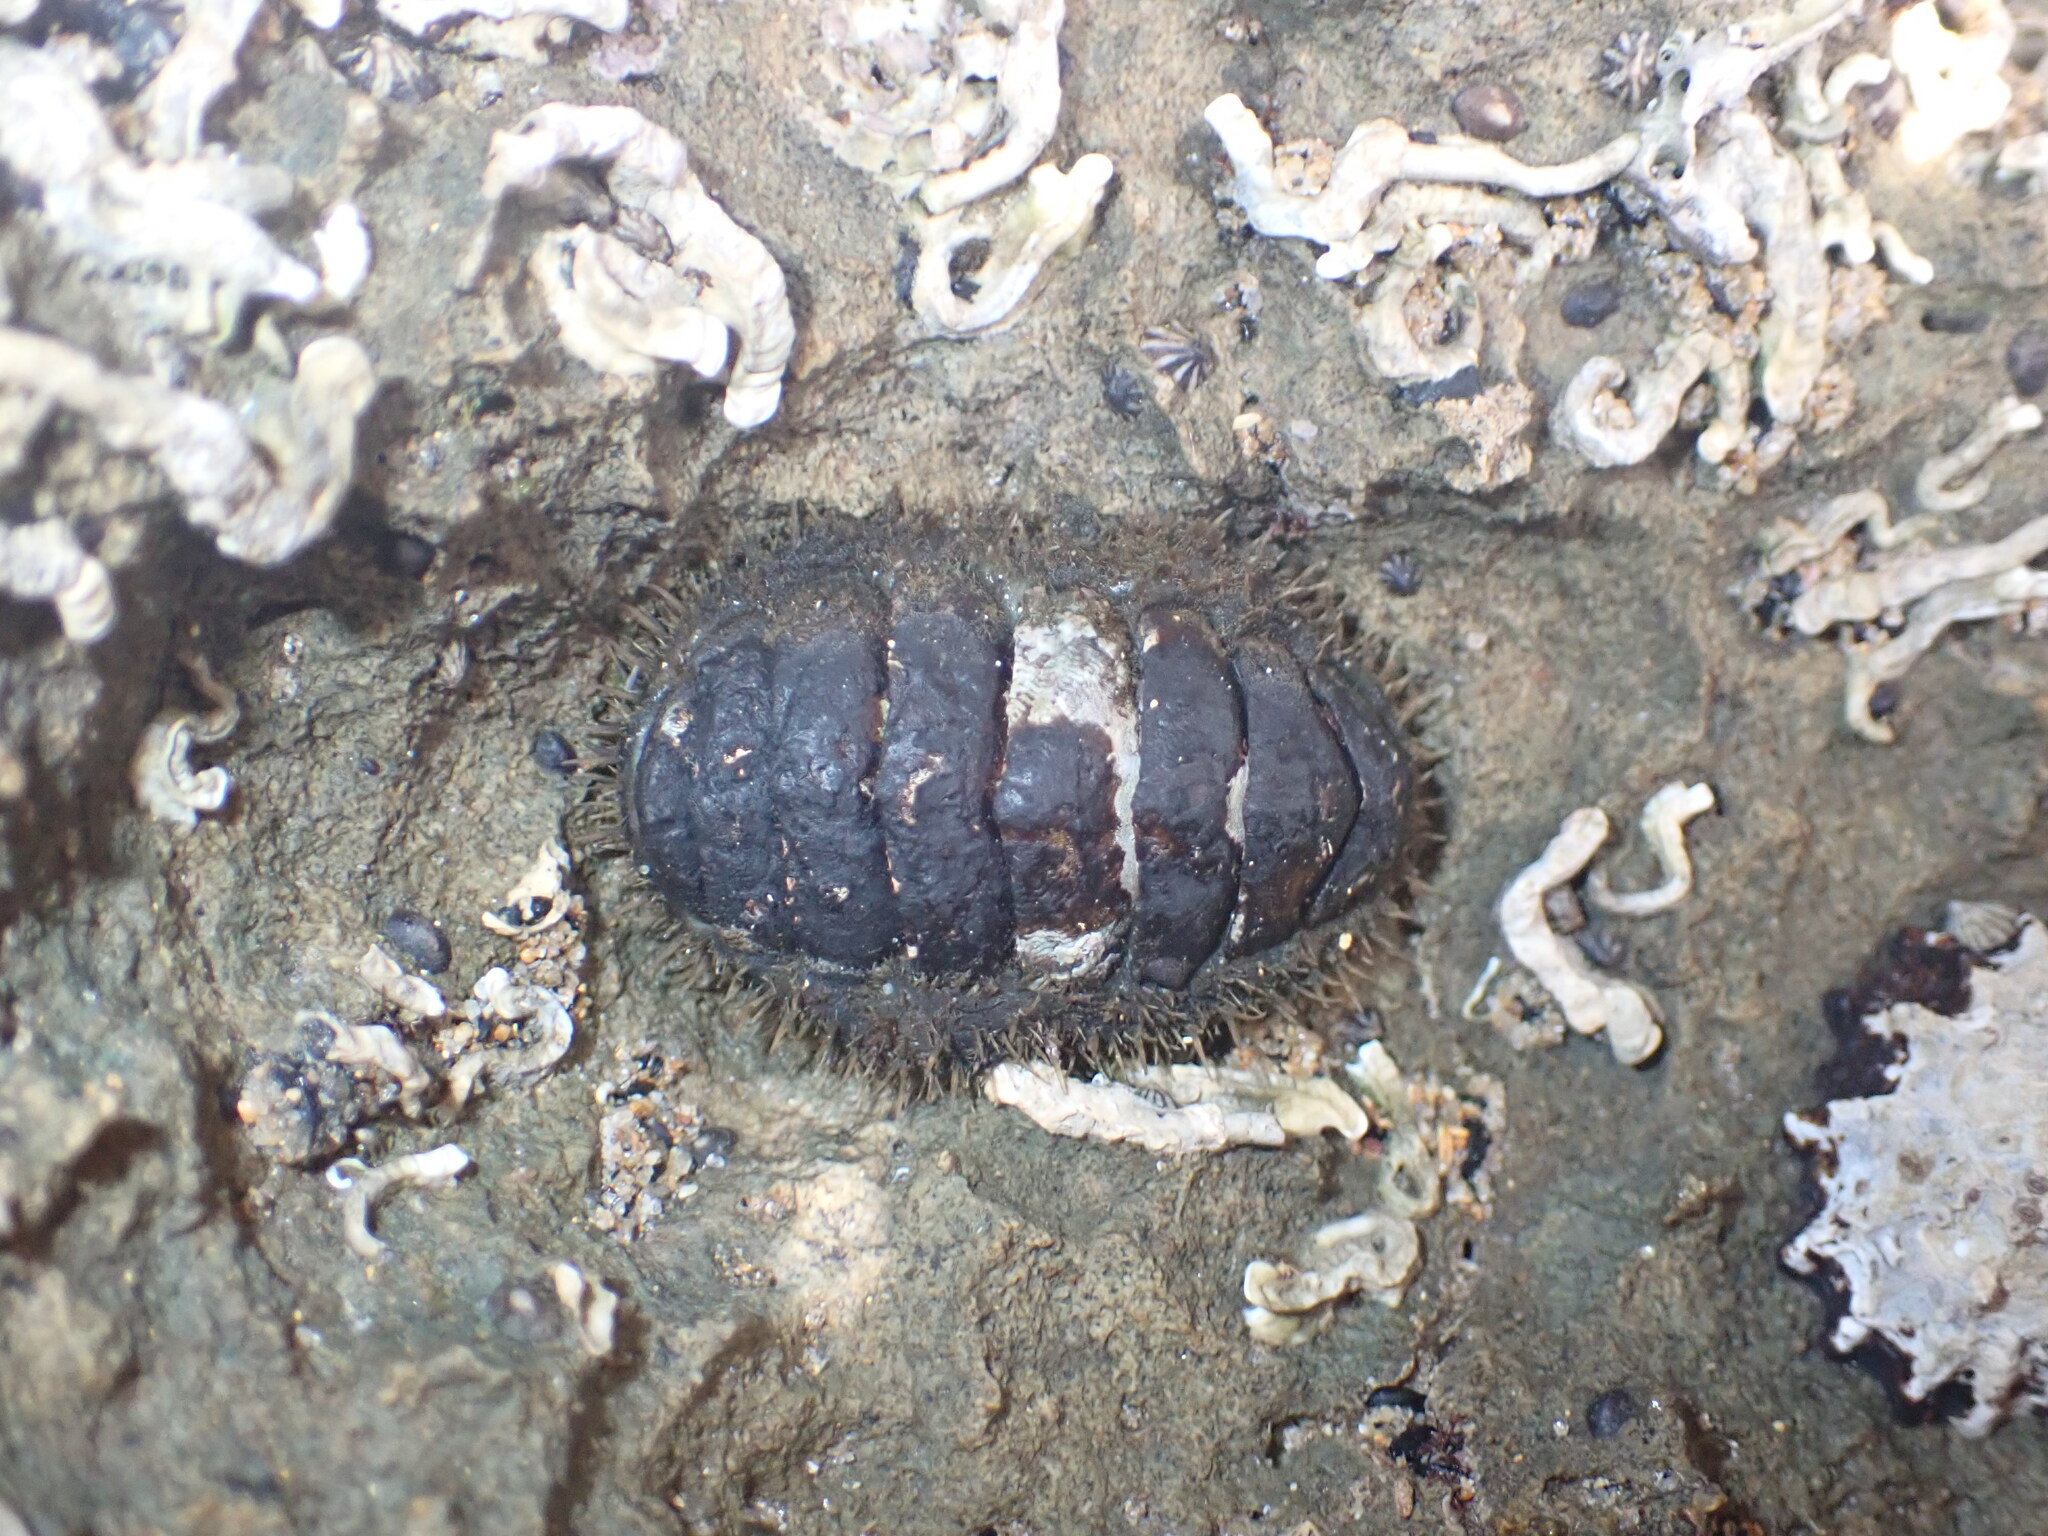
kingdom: Animalia
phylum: Mollusca
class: Polyplacophora
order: Chitonida
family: Mopaliidae
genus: Plaxiphora
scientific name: Plaxiphora albida
